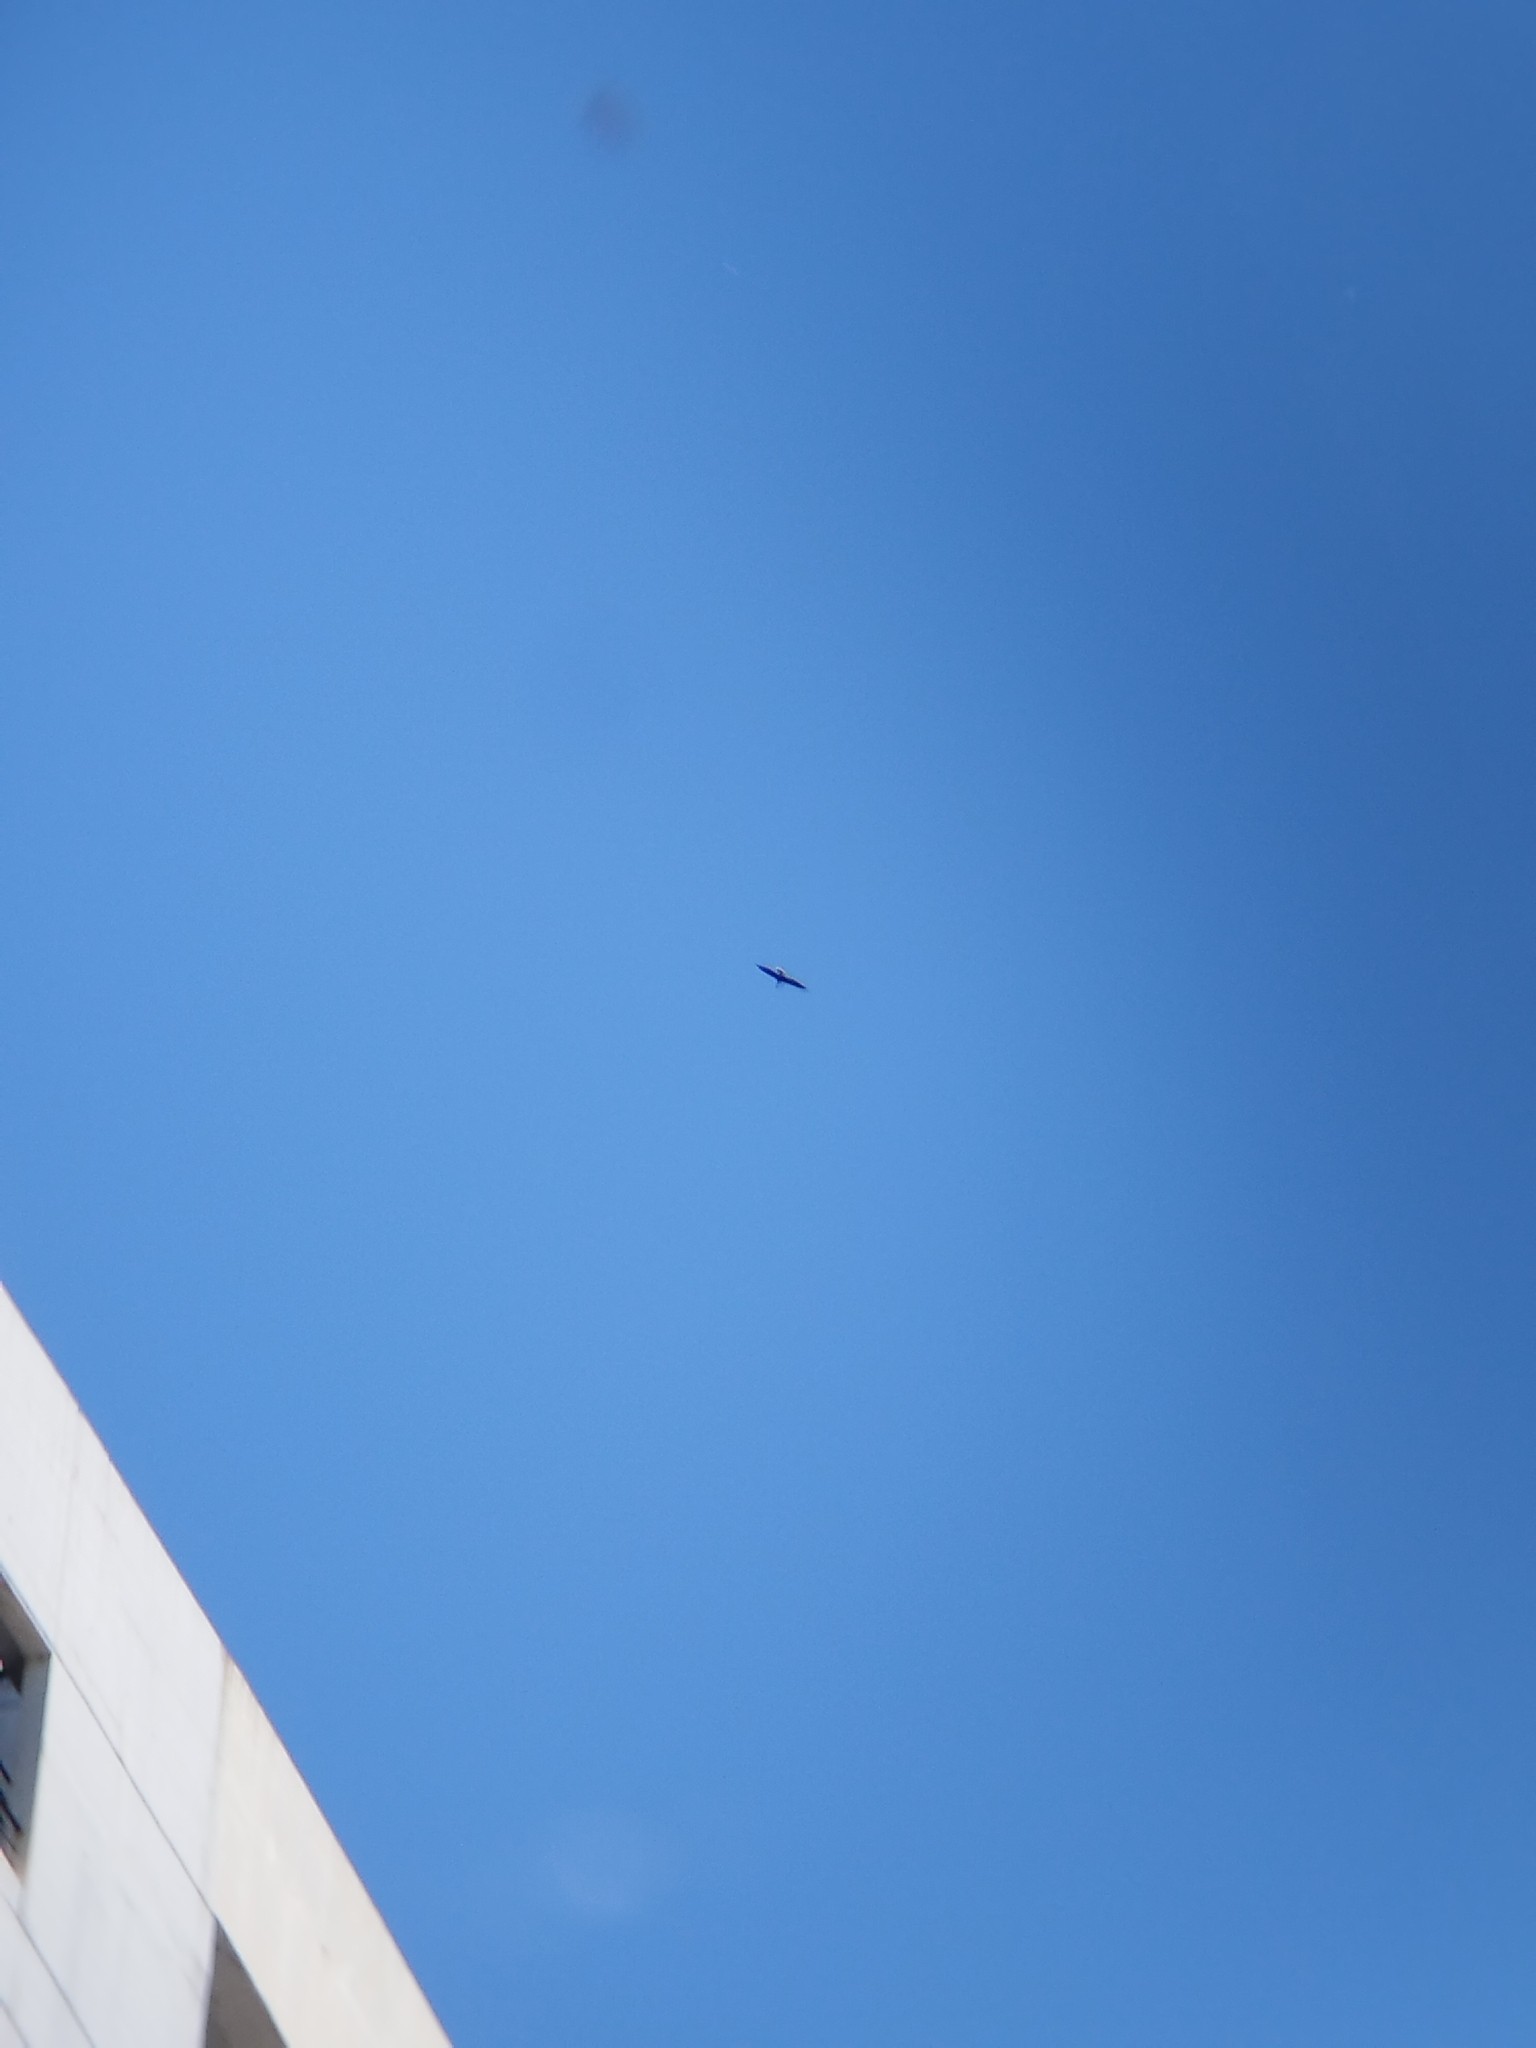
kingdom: Animalia
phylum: Chordata
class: Aves
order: Suliformes
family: Anhingidae
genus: Anhinga
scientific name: Anhinga anhinga
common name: Anhinga
